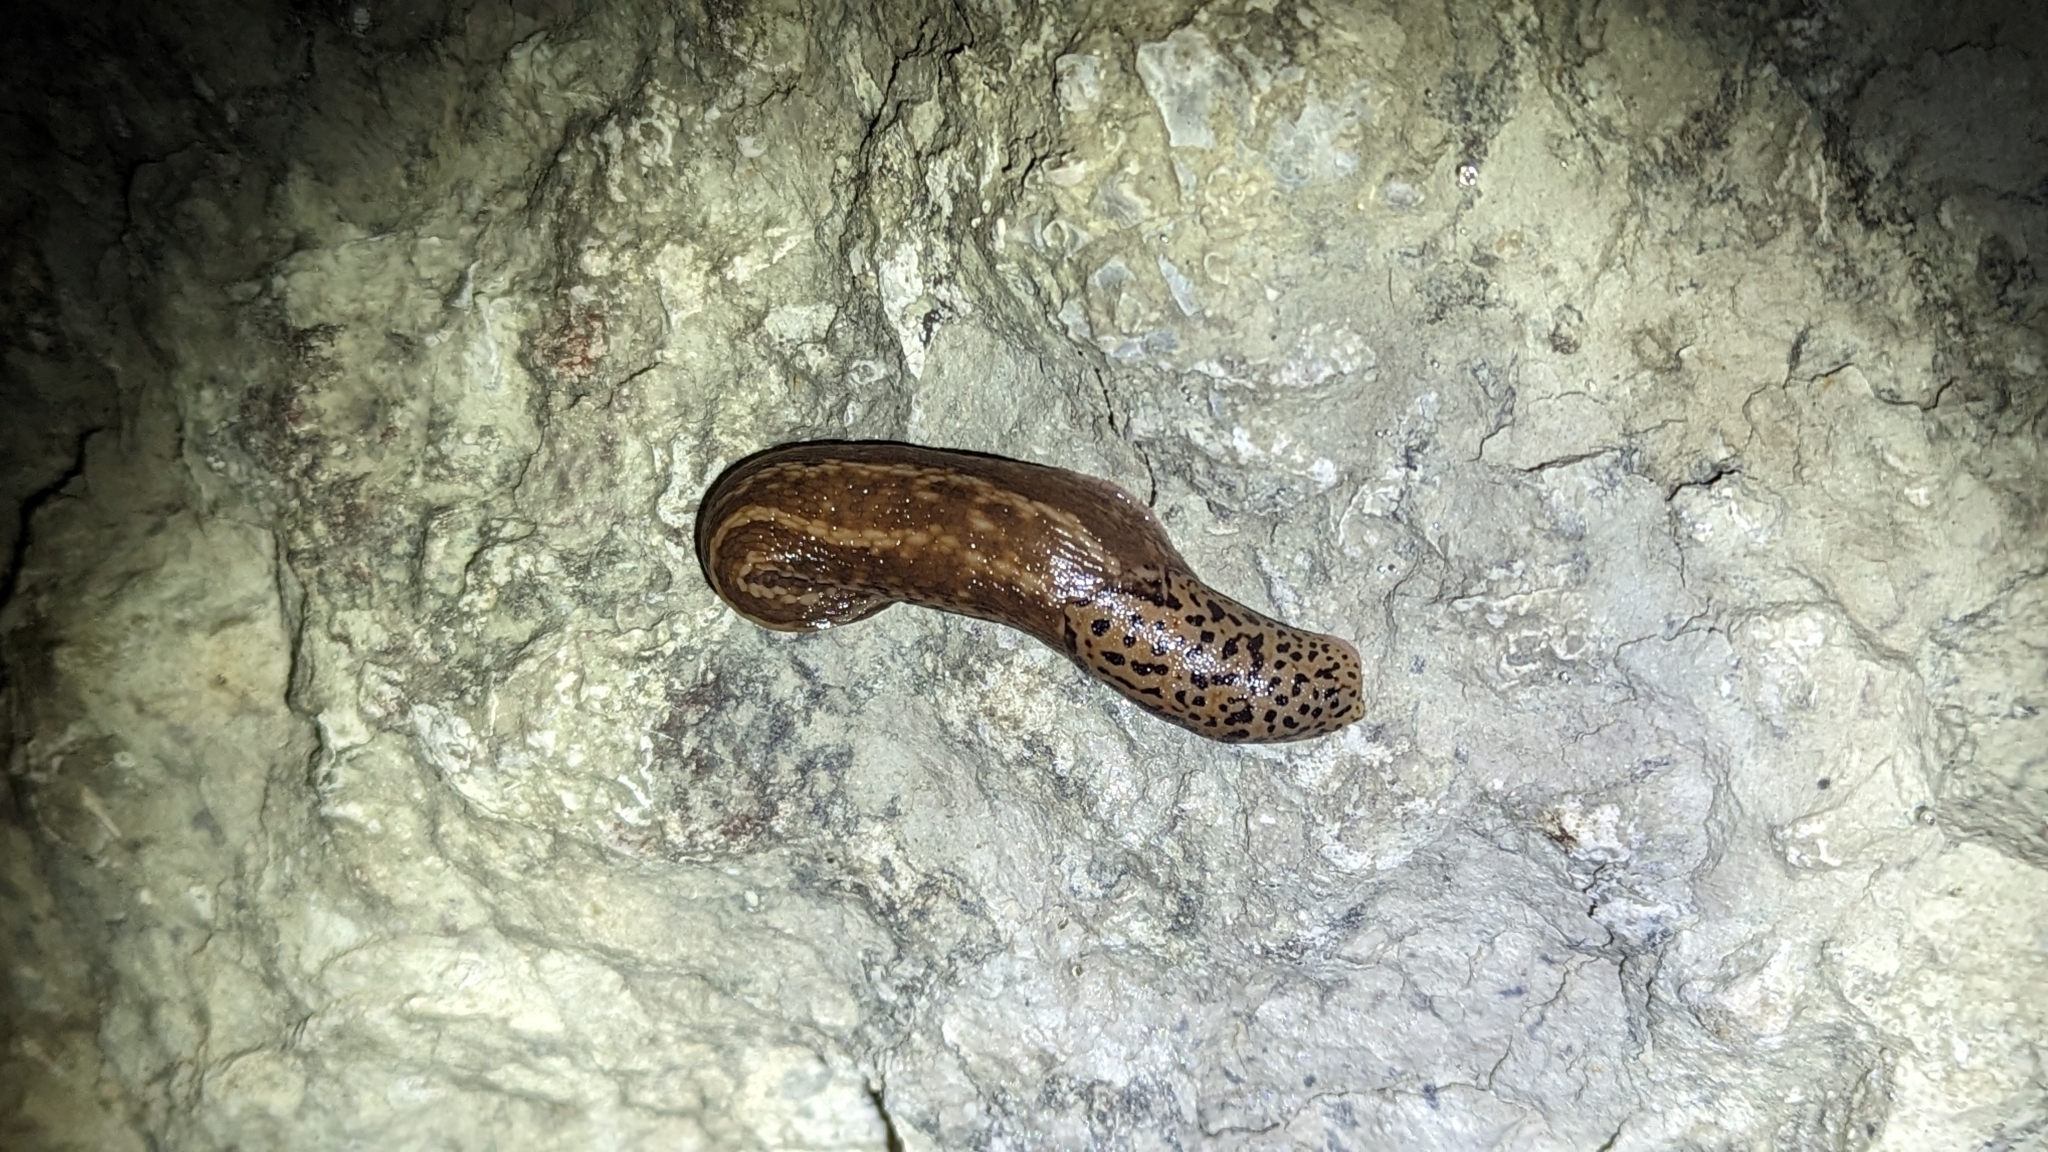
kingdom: Animalia
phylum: Mollusca
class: Gastropoda
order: Stylommatophora
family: Limacidae
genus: Limax
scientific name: Limax maximus
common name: Great grey slug
